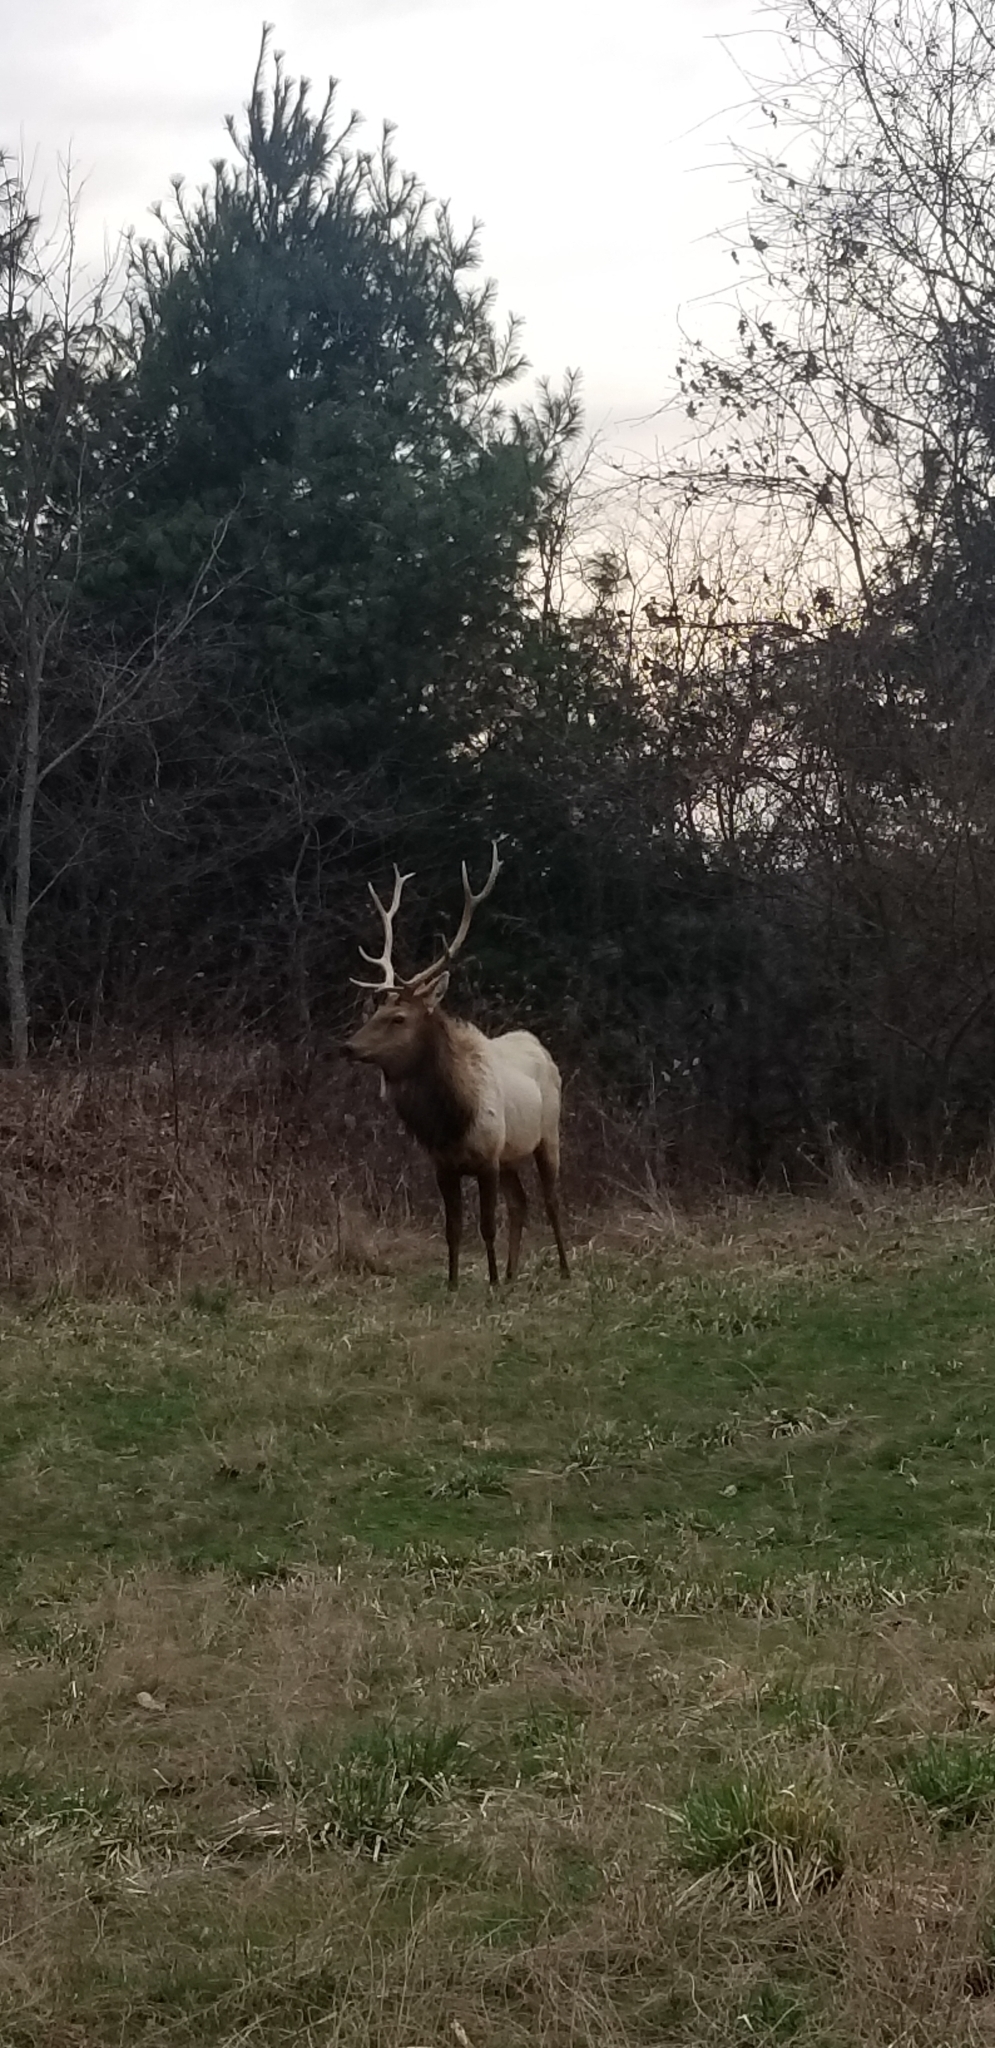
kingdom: Animalia
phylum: Chordata
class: Mammalia
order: Artiodactyla
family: Cervidae
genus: Cervus
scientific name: Cervus elaphus
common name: Red deer
